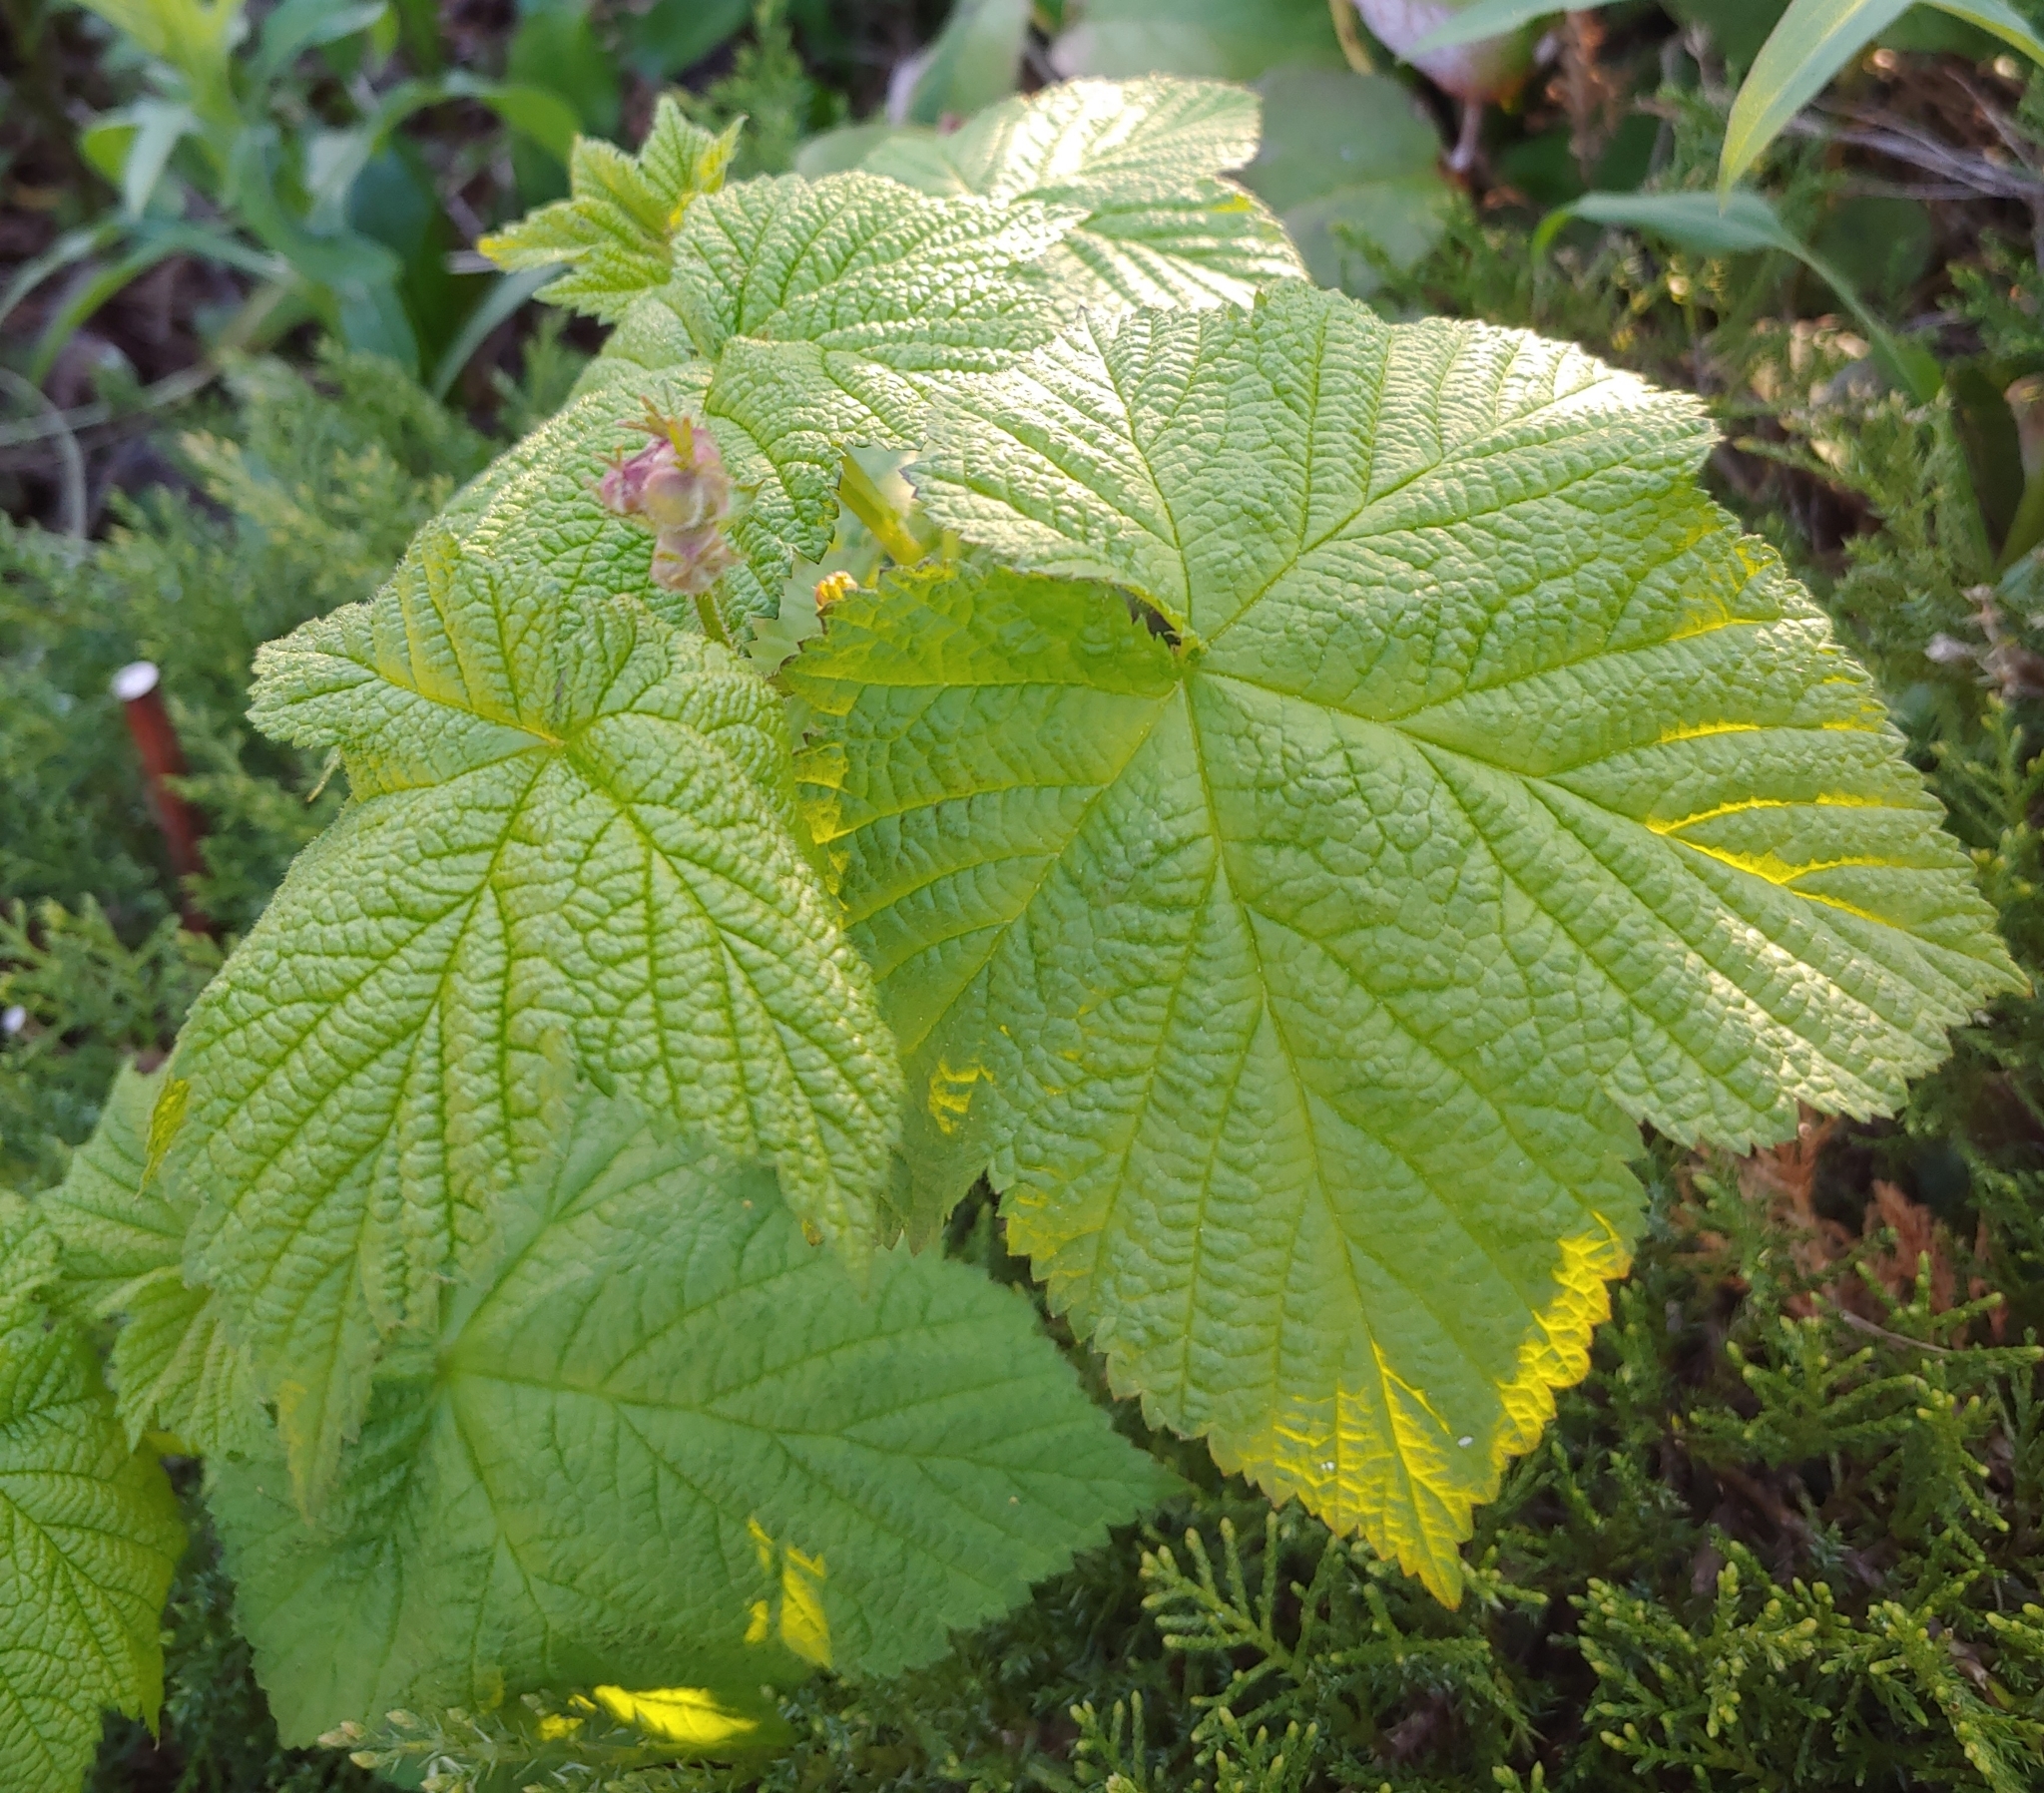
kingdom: Plantae
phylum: Tracheophyta
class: Magnoliopsida
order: Rosales
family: Rosaceae
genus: Rubus
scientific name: Rubus parviflorus
